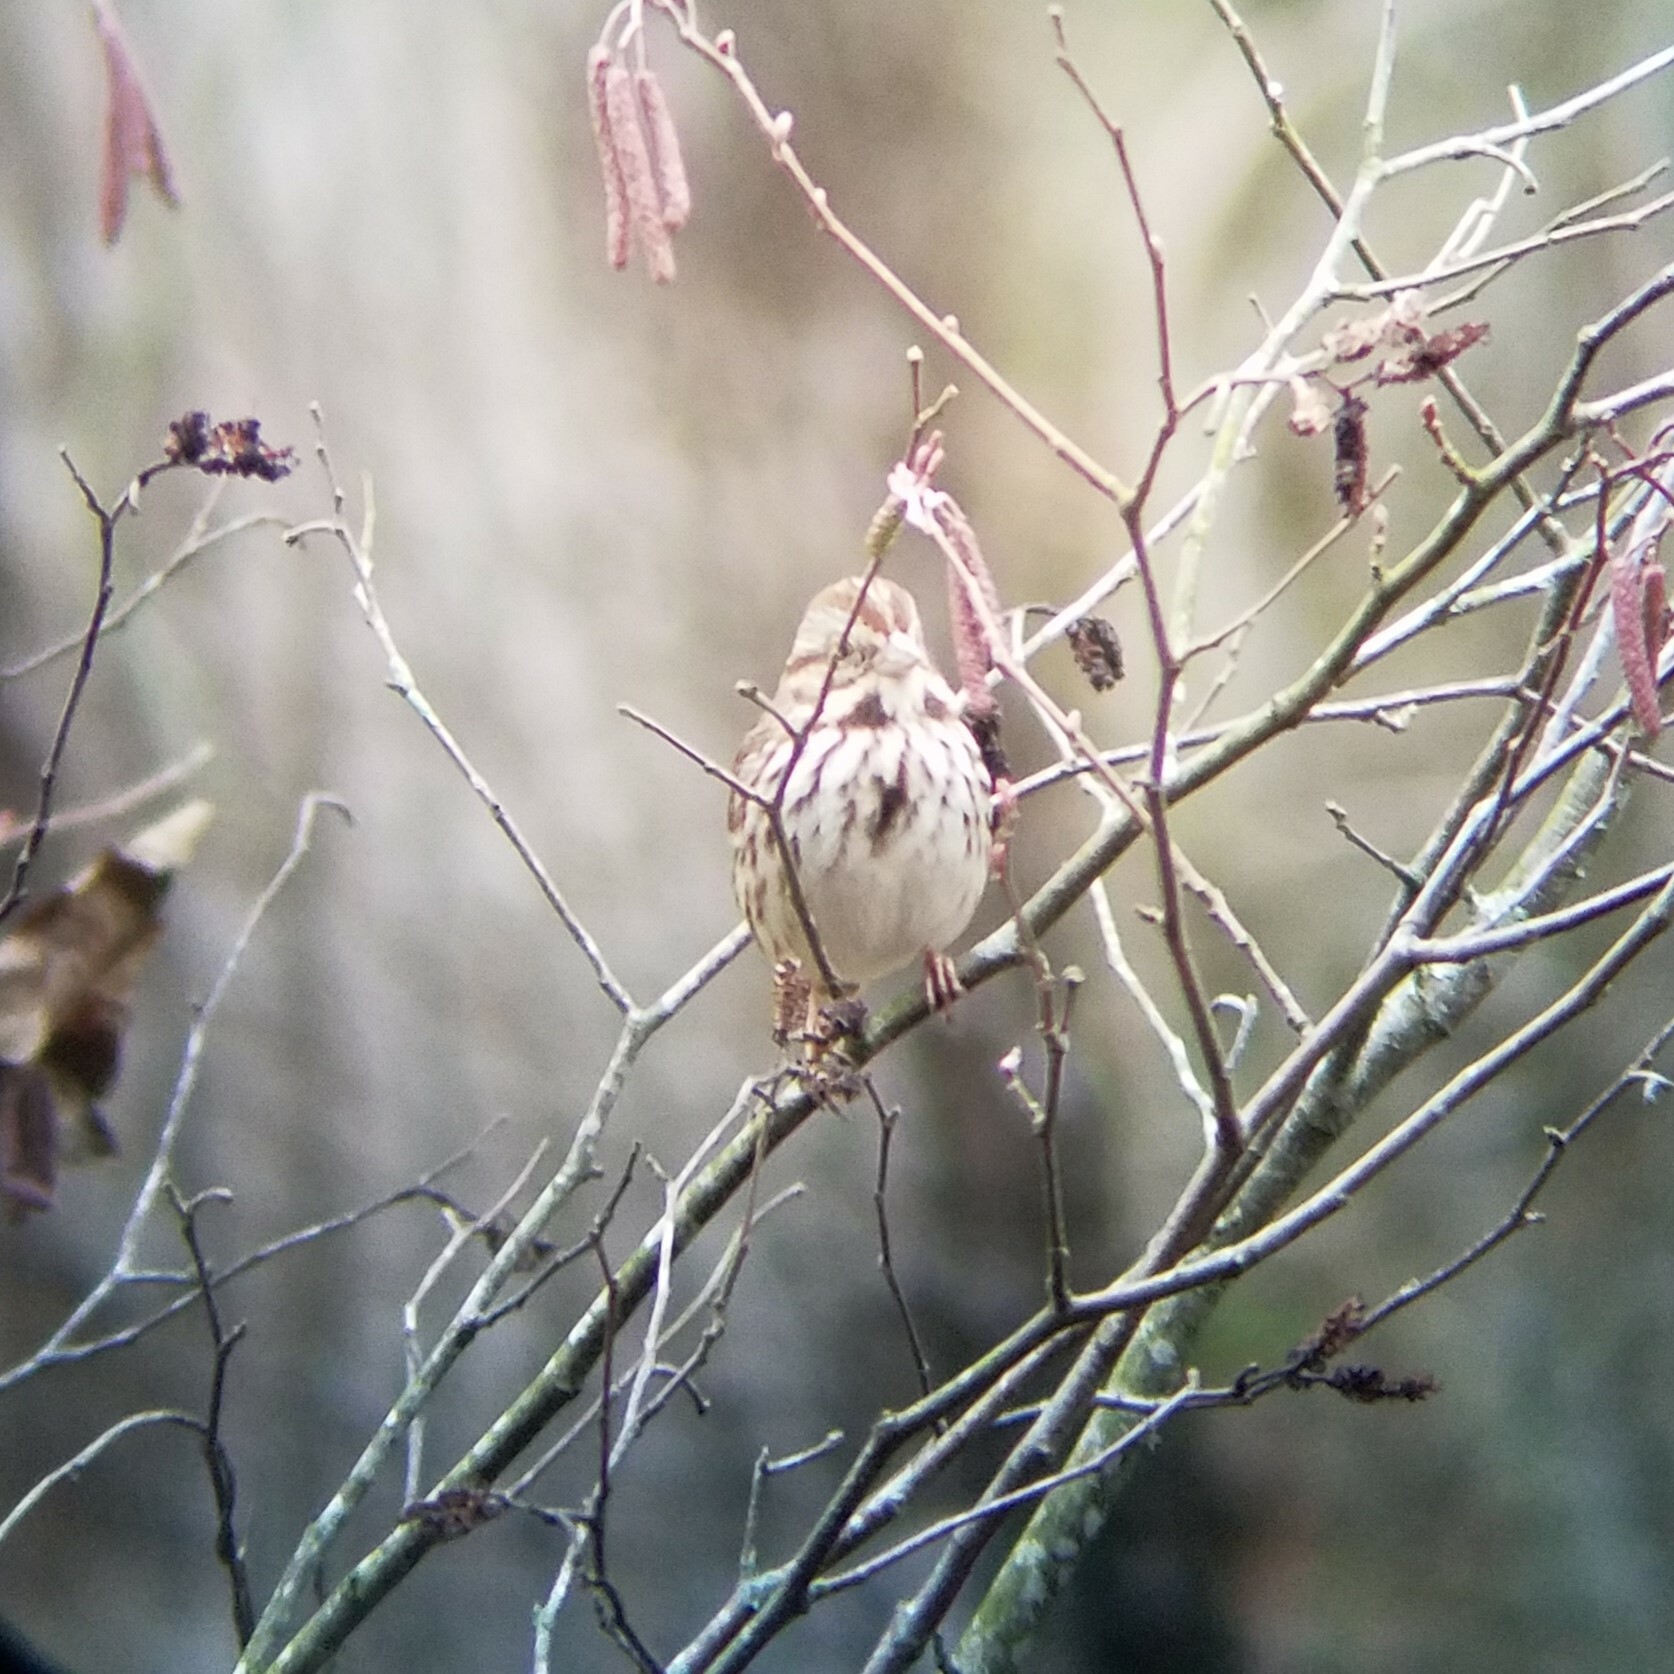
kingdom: Animalia
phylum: Chordata
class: Aves
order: Passeriformes
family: Passerellidae
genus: Melospiza
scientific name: Melospiza melodia
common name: Song sparrow
